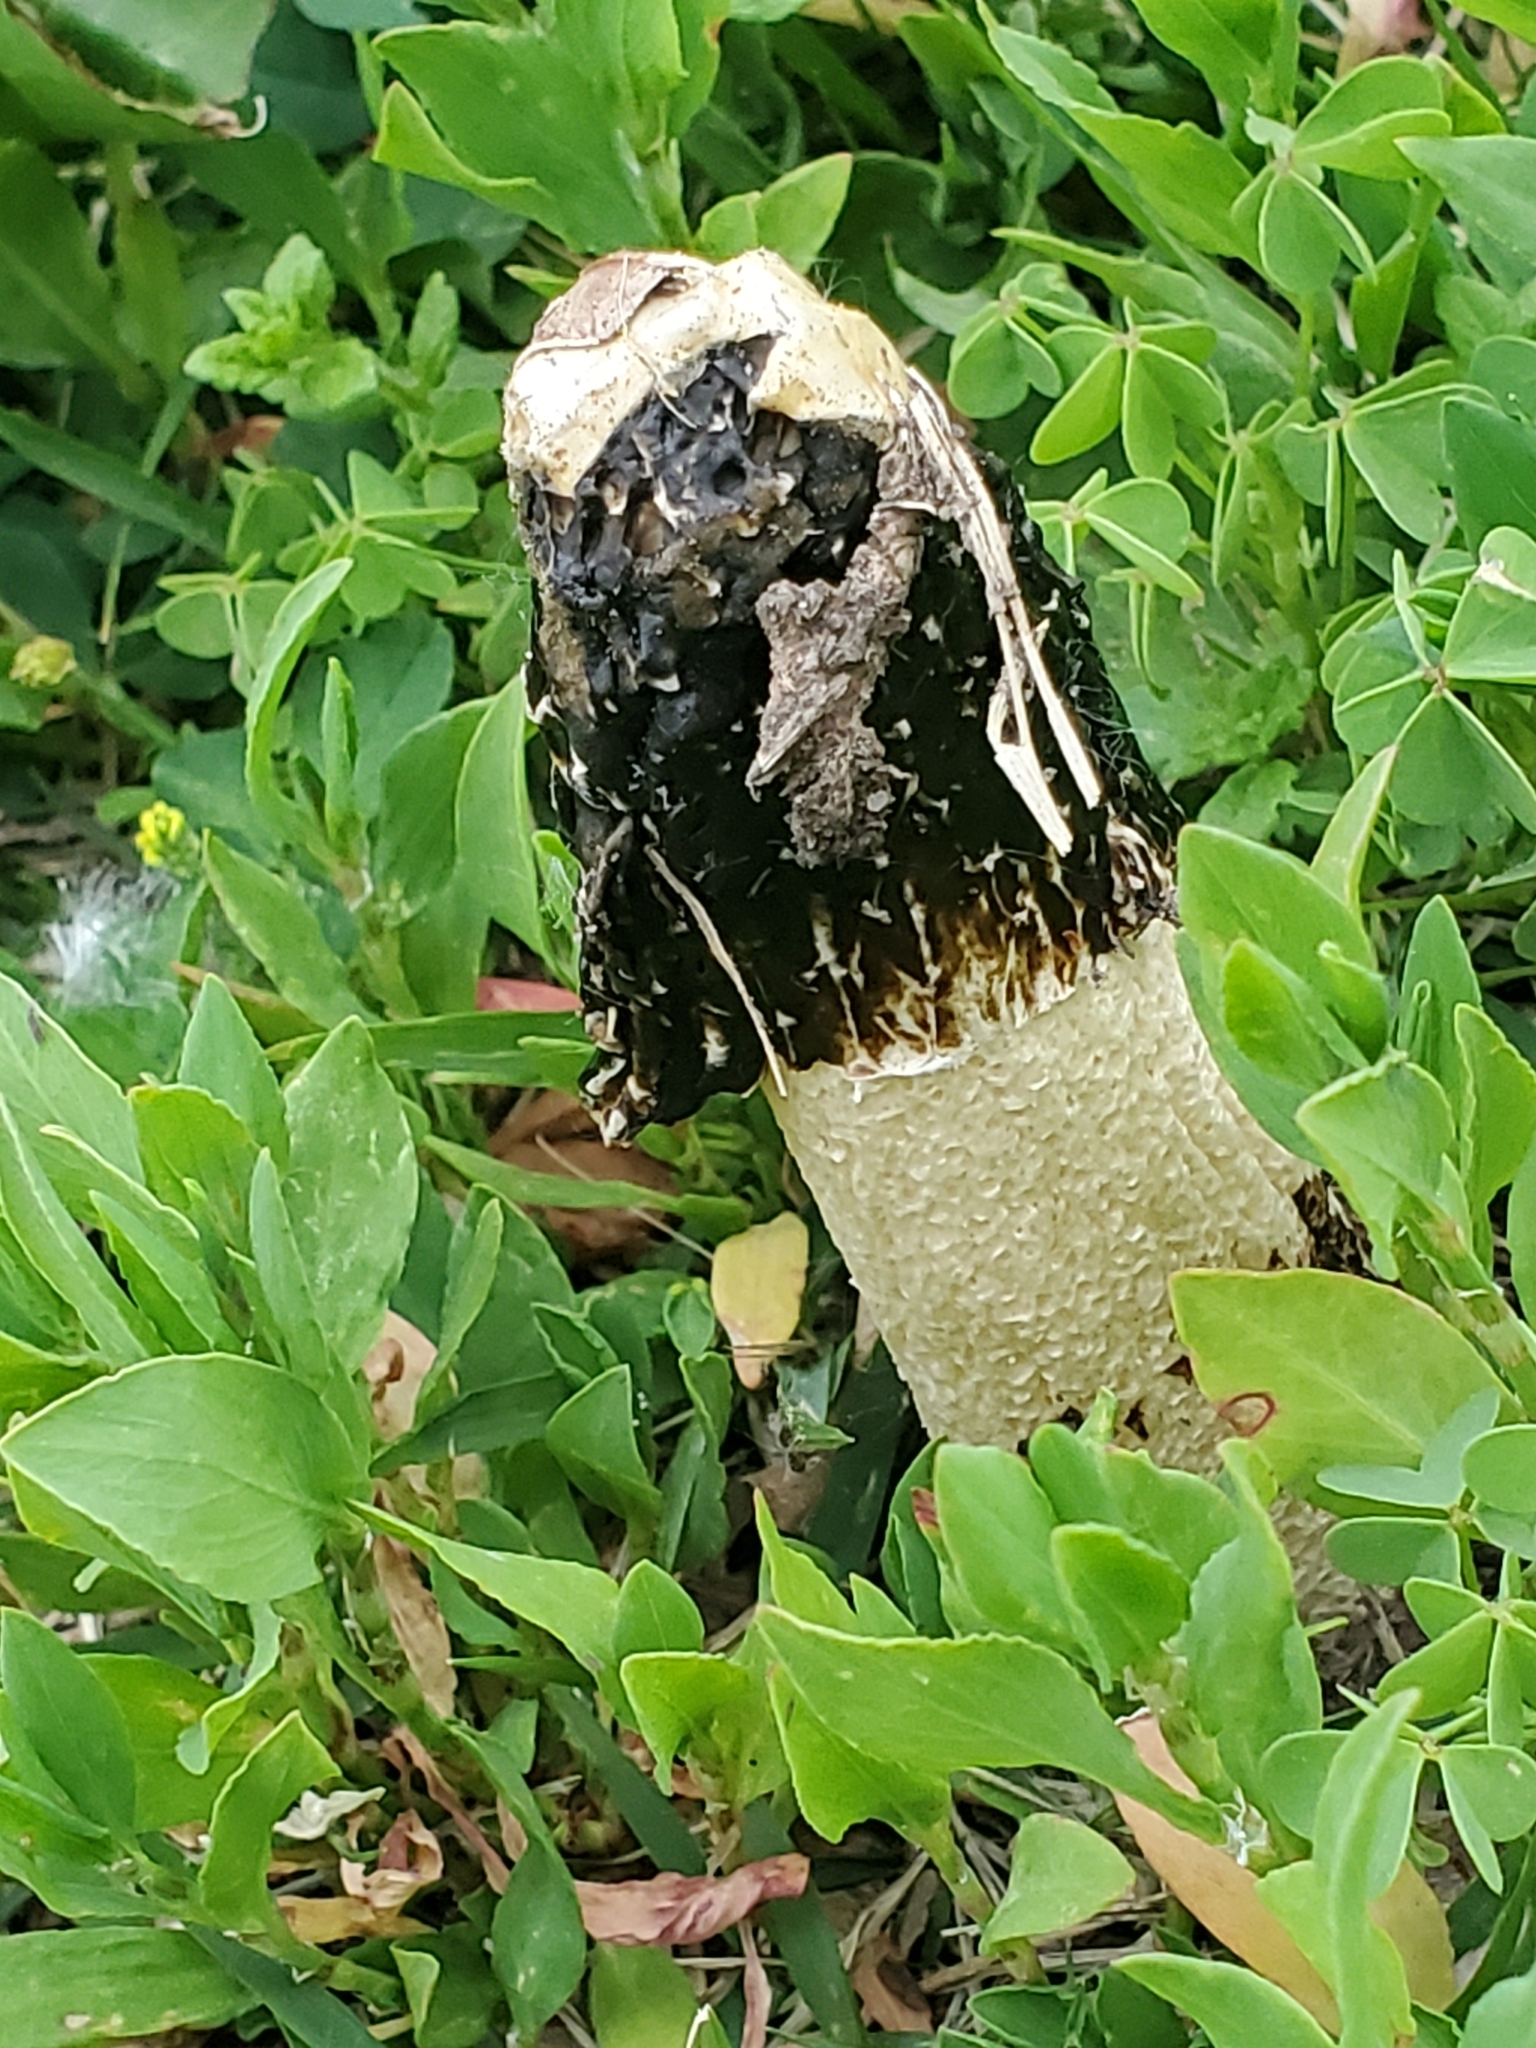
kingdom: Fungi
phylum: Basidiomycota
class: Agaricomycetes
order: Phallales
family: Phallaceae
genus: Phallus
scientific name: Phallus hadriani
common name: Sand stinkhorn
